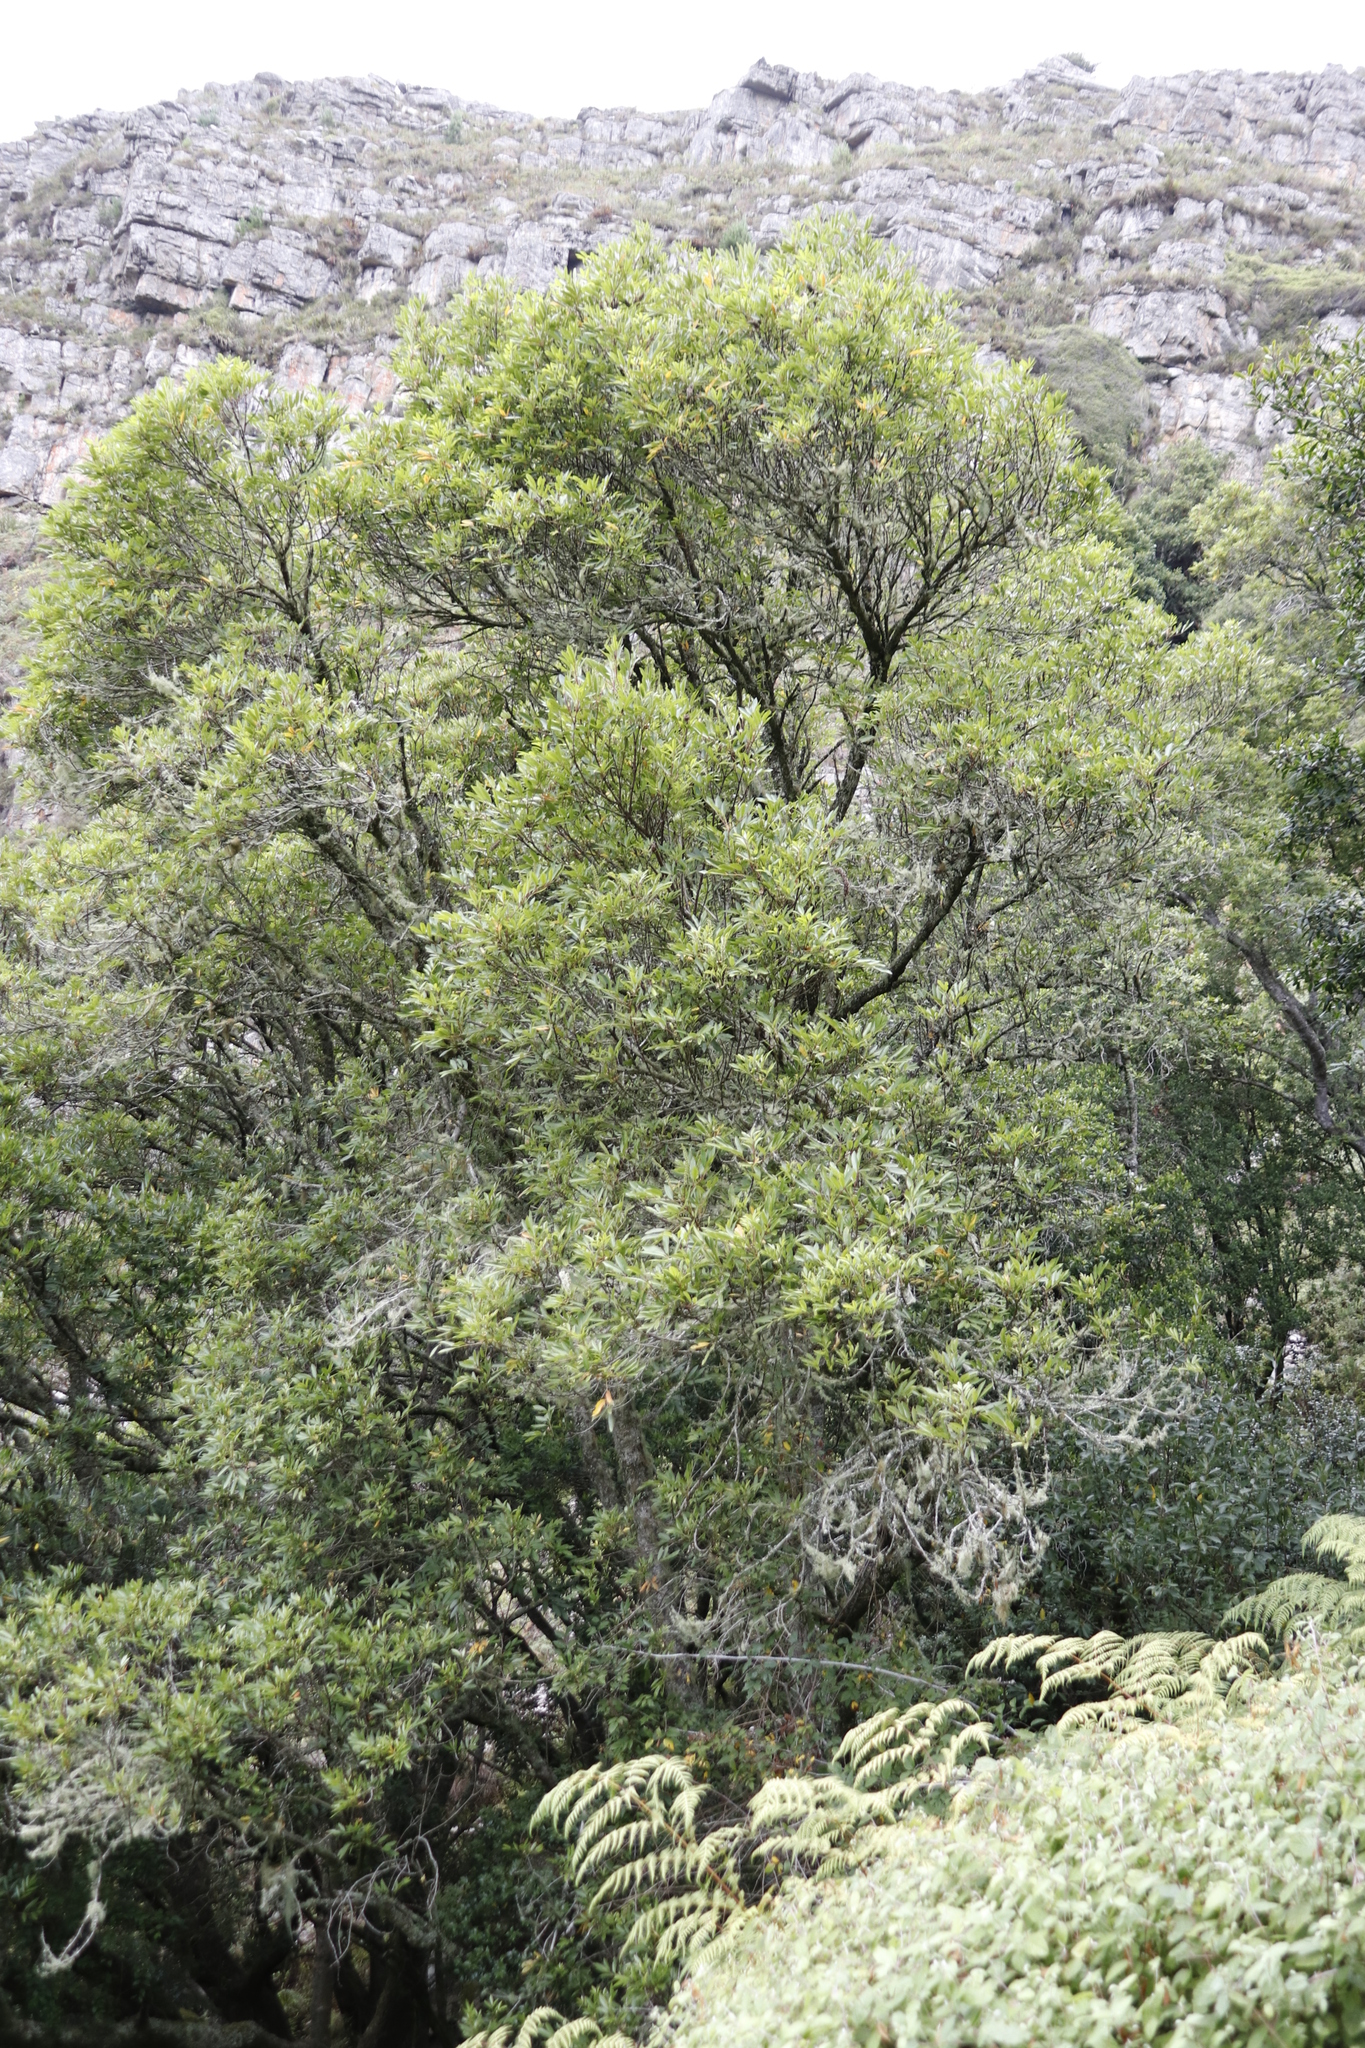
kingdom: Plantae
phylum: Tracheophyta
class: Magnoliopsida
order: Oxalidales
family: Cunoniaceae
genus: Cunonia
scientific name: Cunonia capensis
